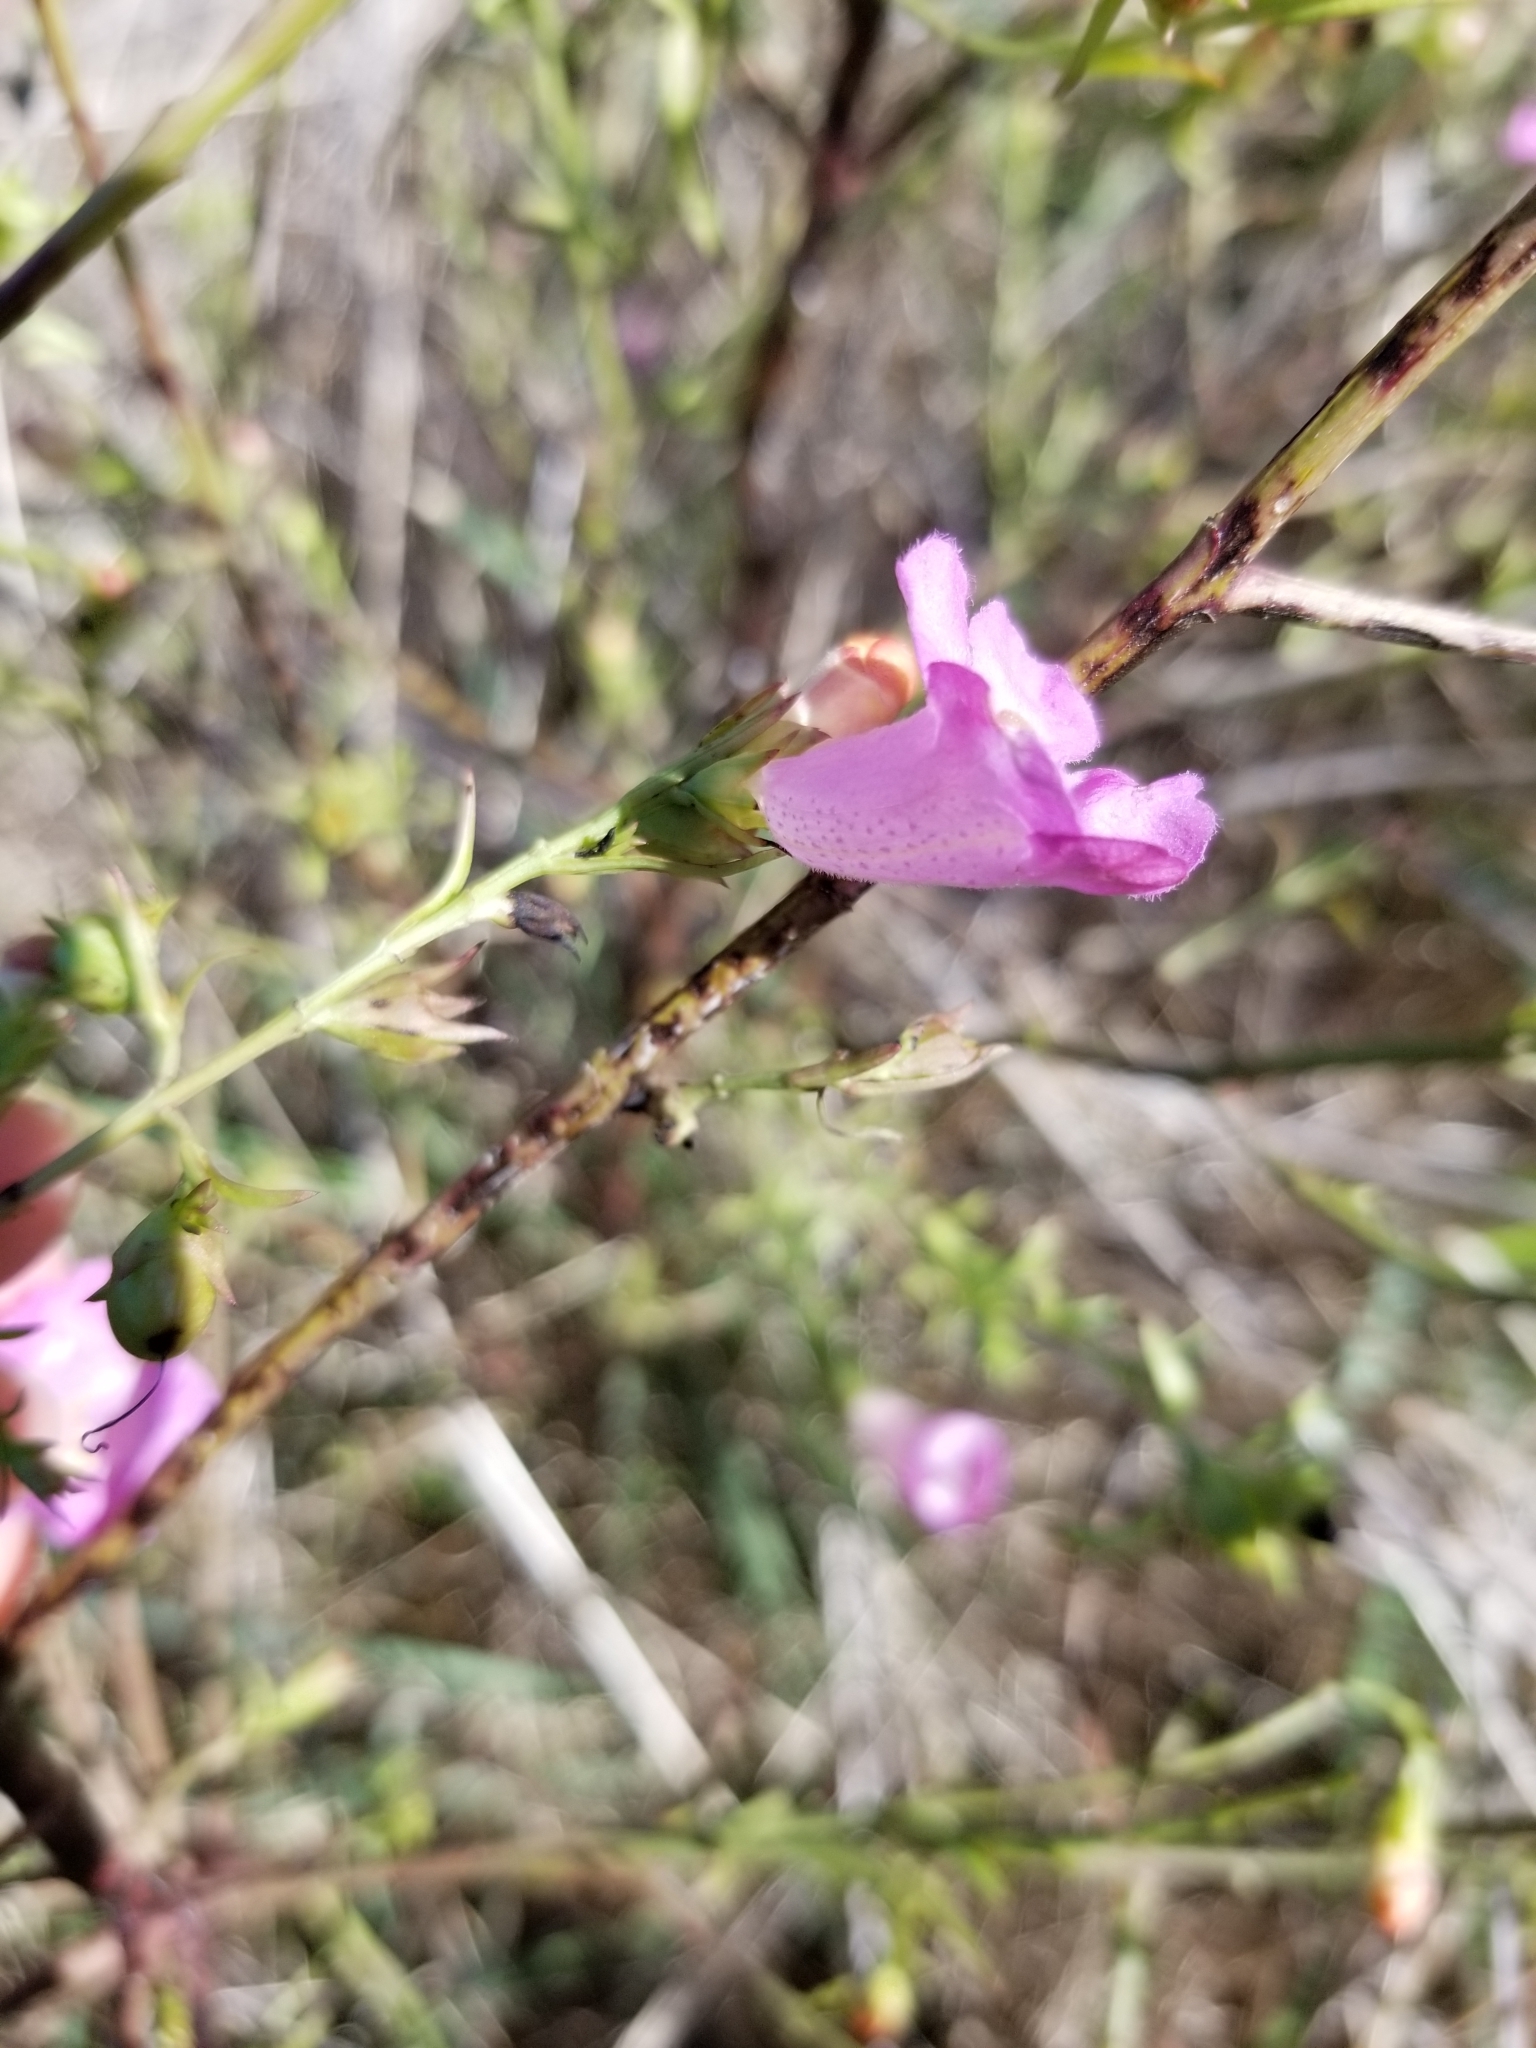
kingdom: Plantae
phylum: Tracheophyta
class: Magnoliopsida
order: Lamiales
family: Orobanchaceae
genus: Agalinis
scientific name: Agalinis heterophylla
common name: Prairie agalinis
